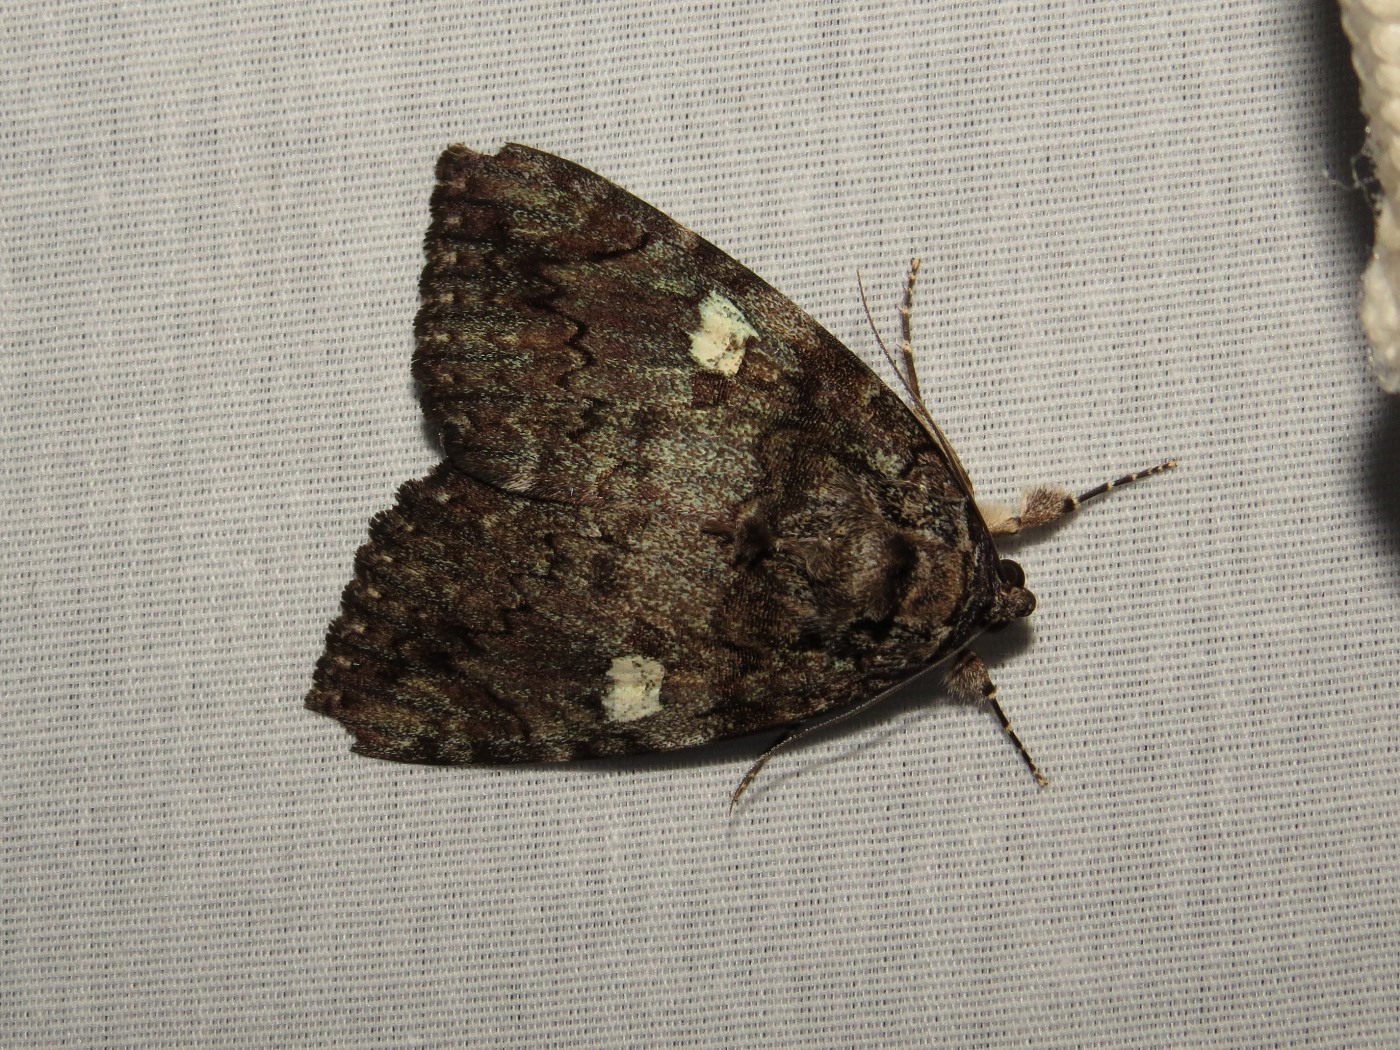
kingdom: Animalia
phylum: Arthropoda
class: Insecta
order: Lepidoptera
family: Erebidae
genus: Catocala
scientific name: Catocala ilia
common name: Ilia underwing
